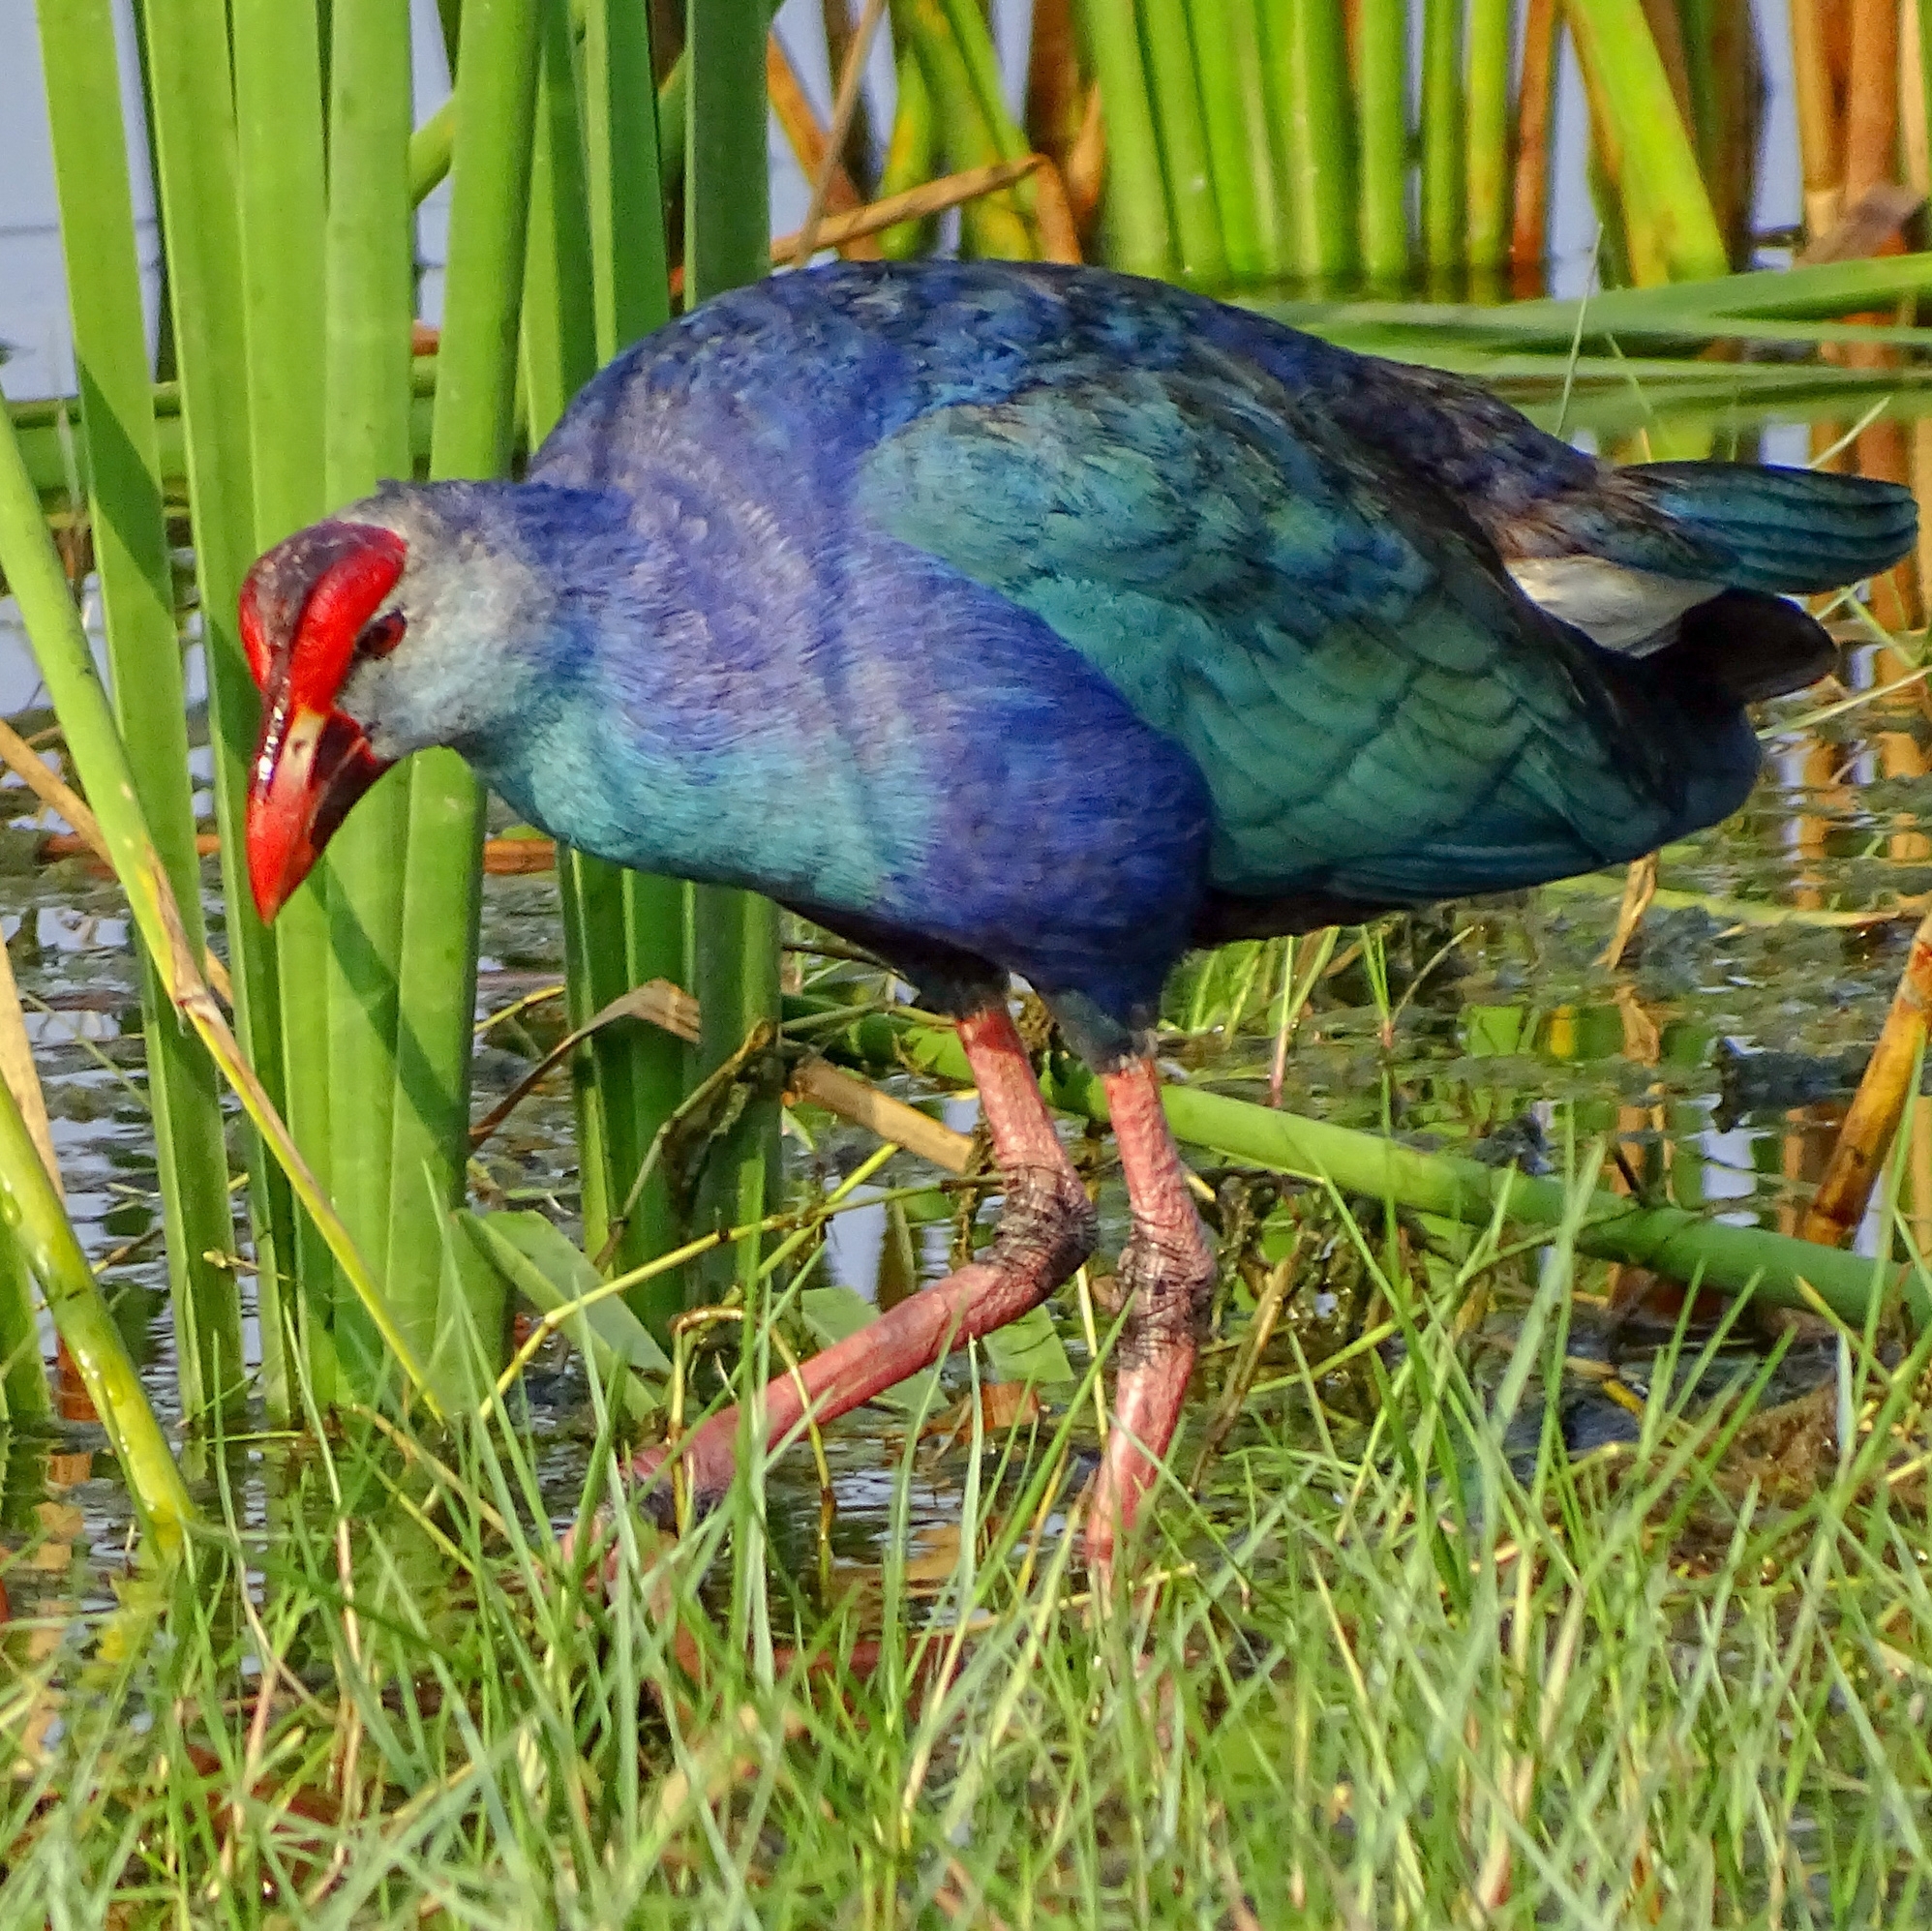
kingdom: Animalia
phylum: Chordata
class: Aves
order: Gruiformes
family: Rallidae
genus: Porphyrio
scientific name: Porphyrio porphyrio
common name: Purple swamphen
